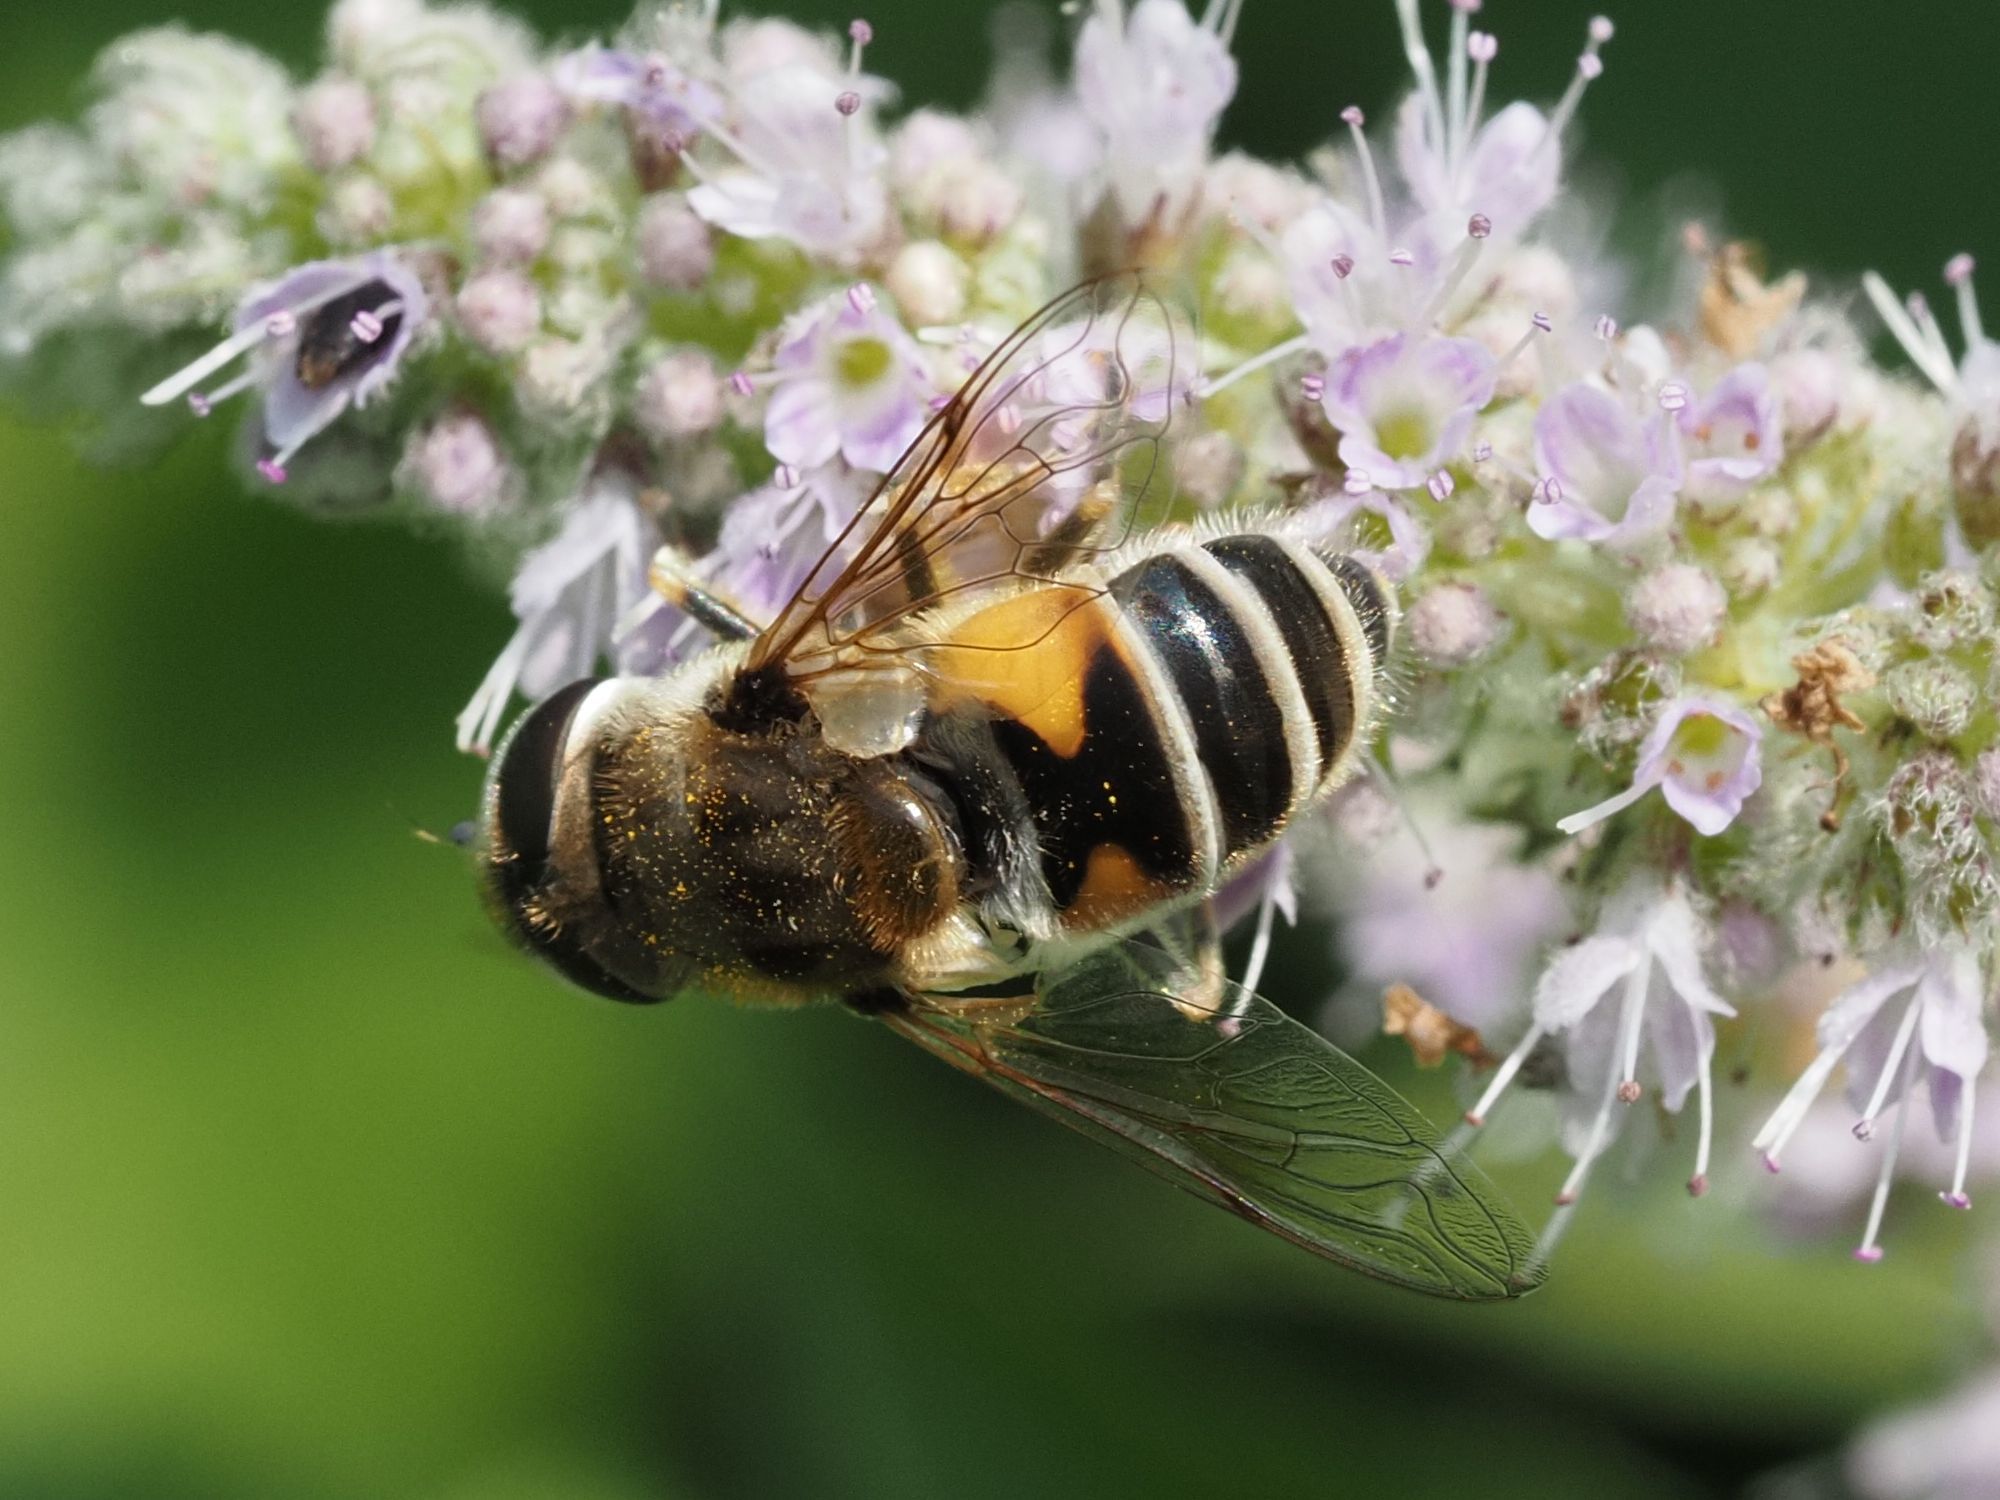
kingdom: Animalia
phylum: Arthropoda
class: Insecta
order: Diptera
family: Syrphidae
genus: Eristalis
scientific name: Eristalis arbustorum
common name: Hover fly
